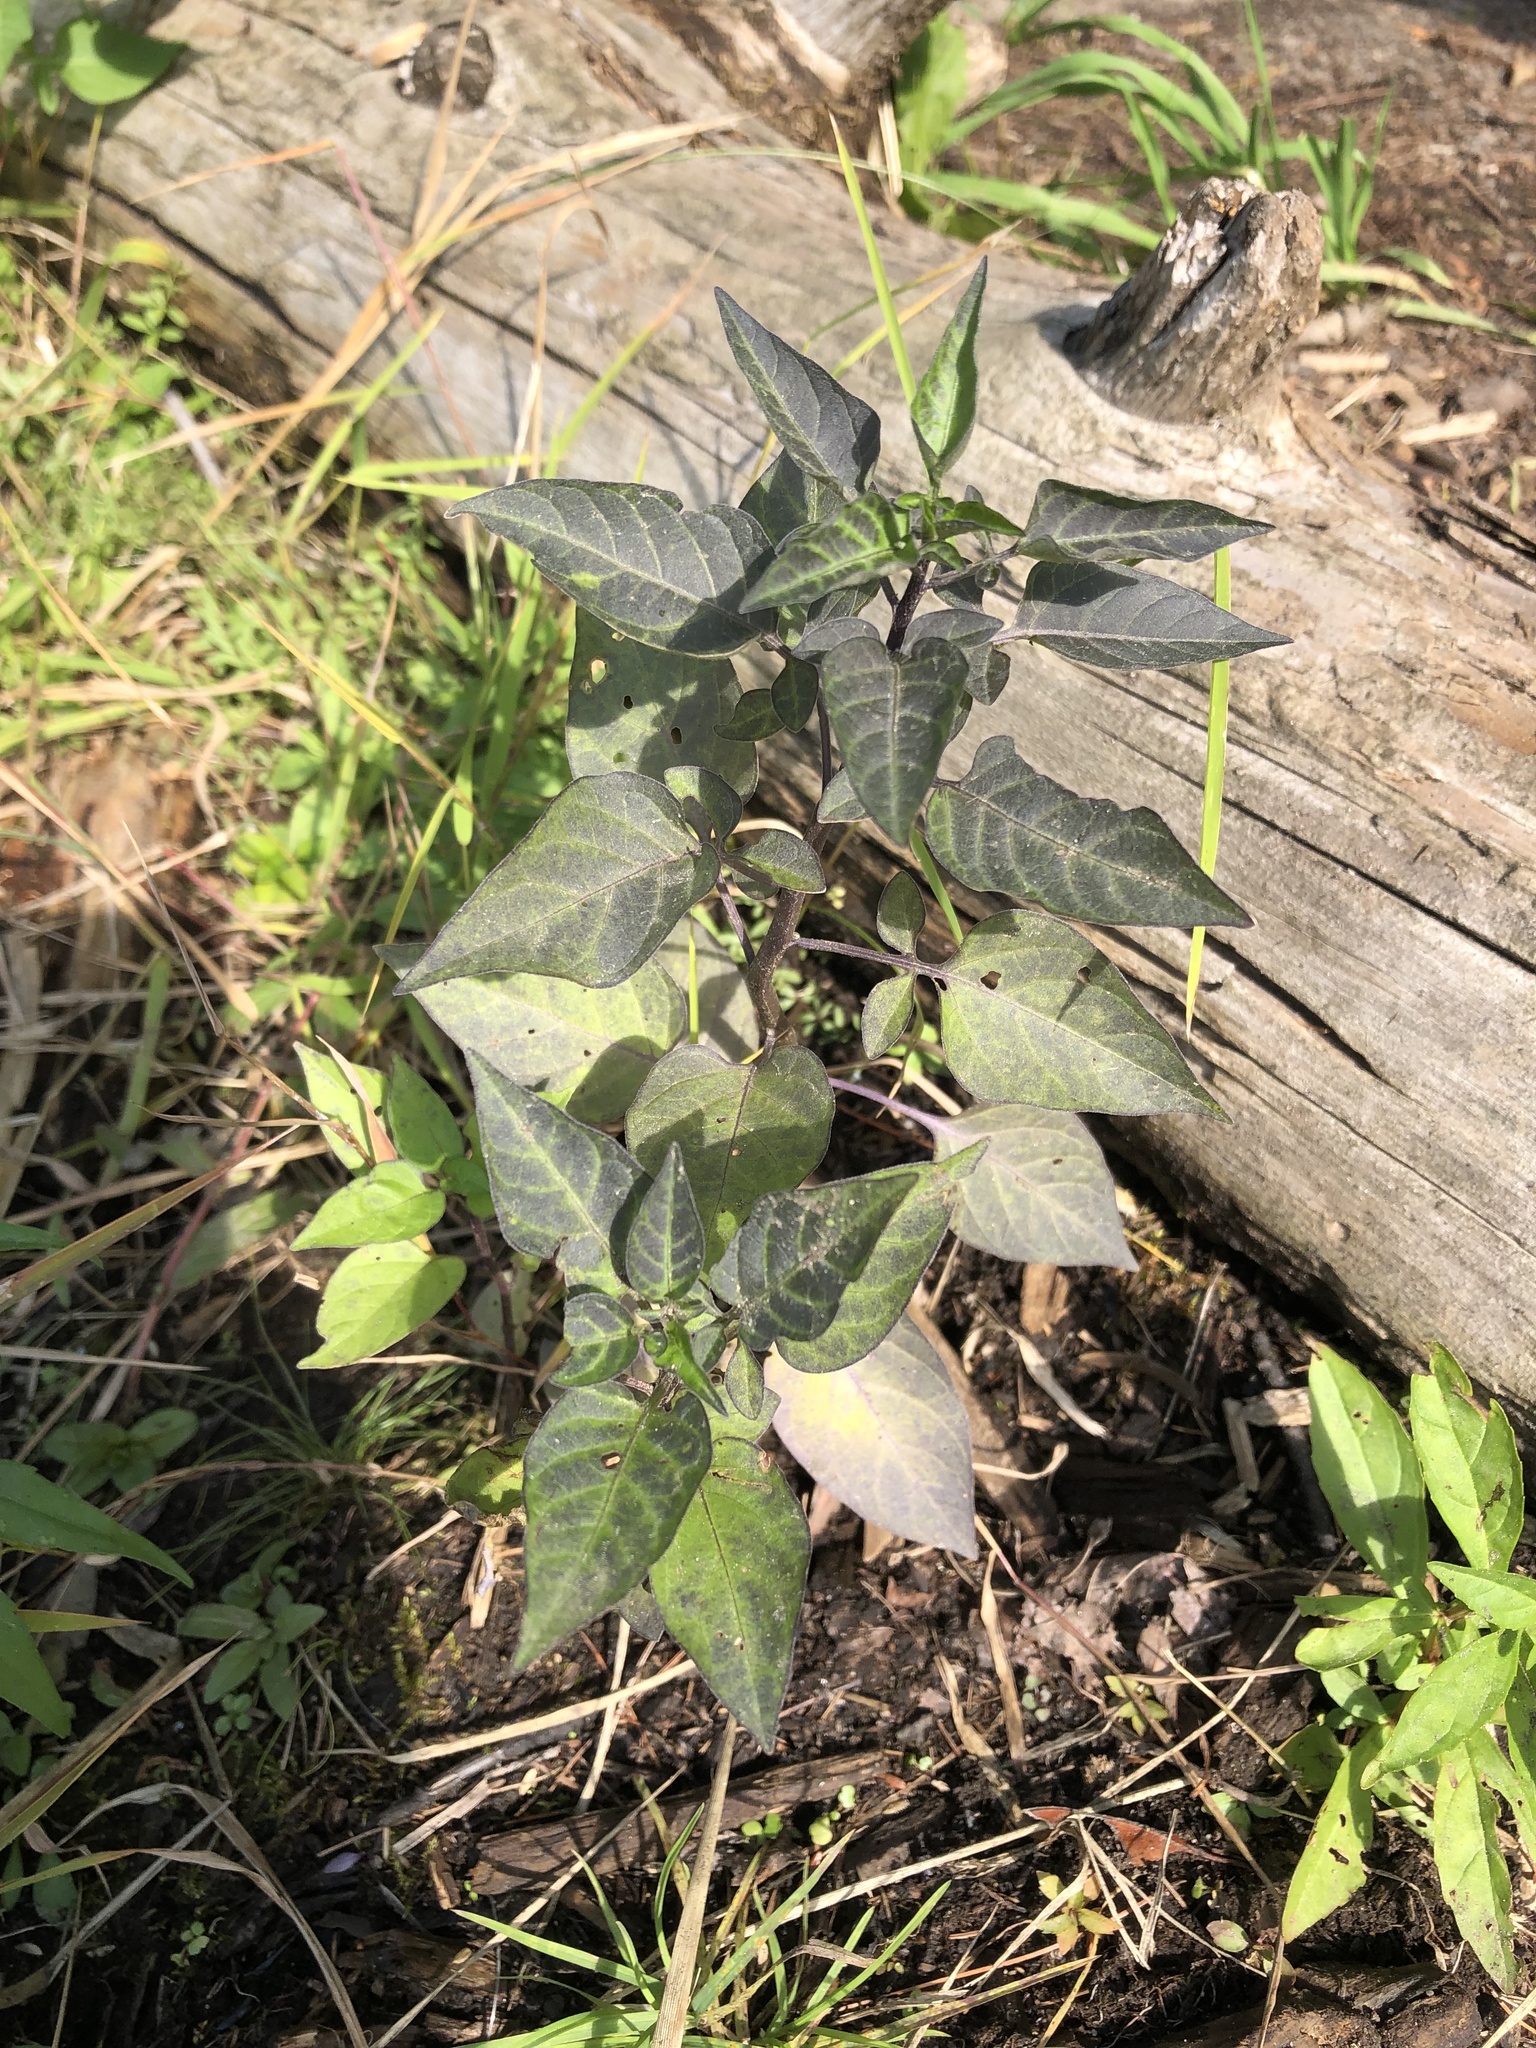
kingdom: Plantae
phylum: Tracheophyta
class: Magnoliopsida
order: Solanales
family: Solanaceae
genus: Solanum
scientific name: Solanum dulcamara
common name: Climbing nightshade
